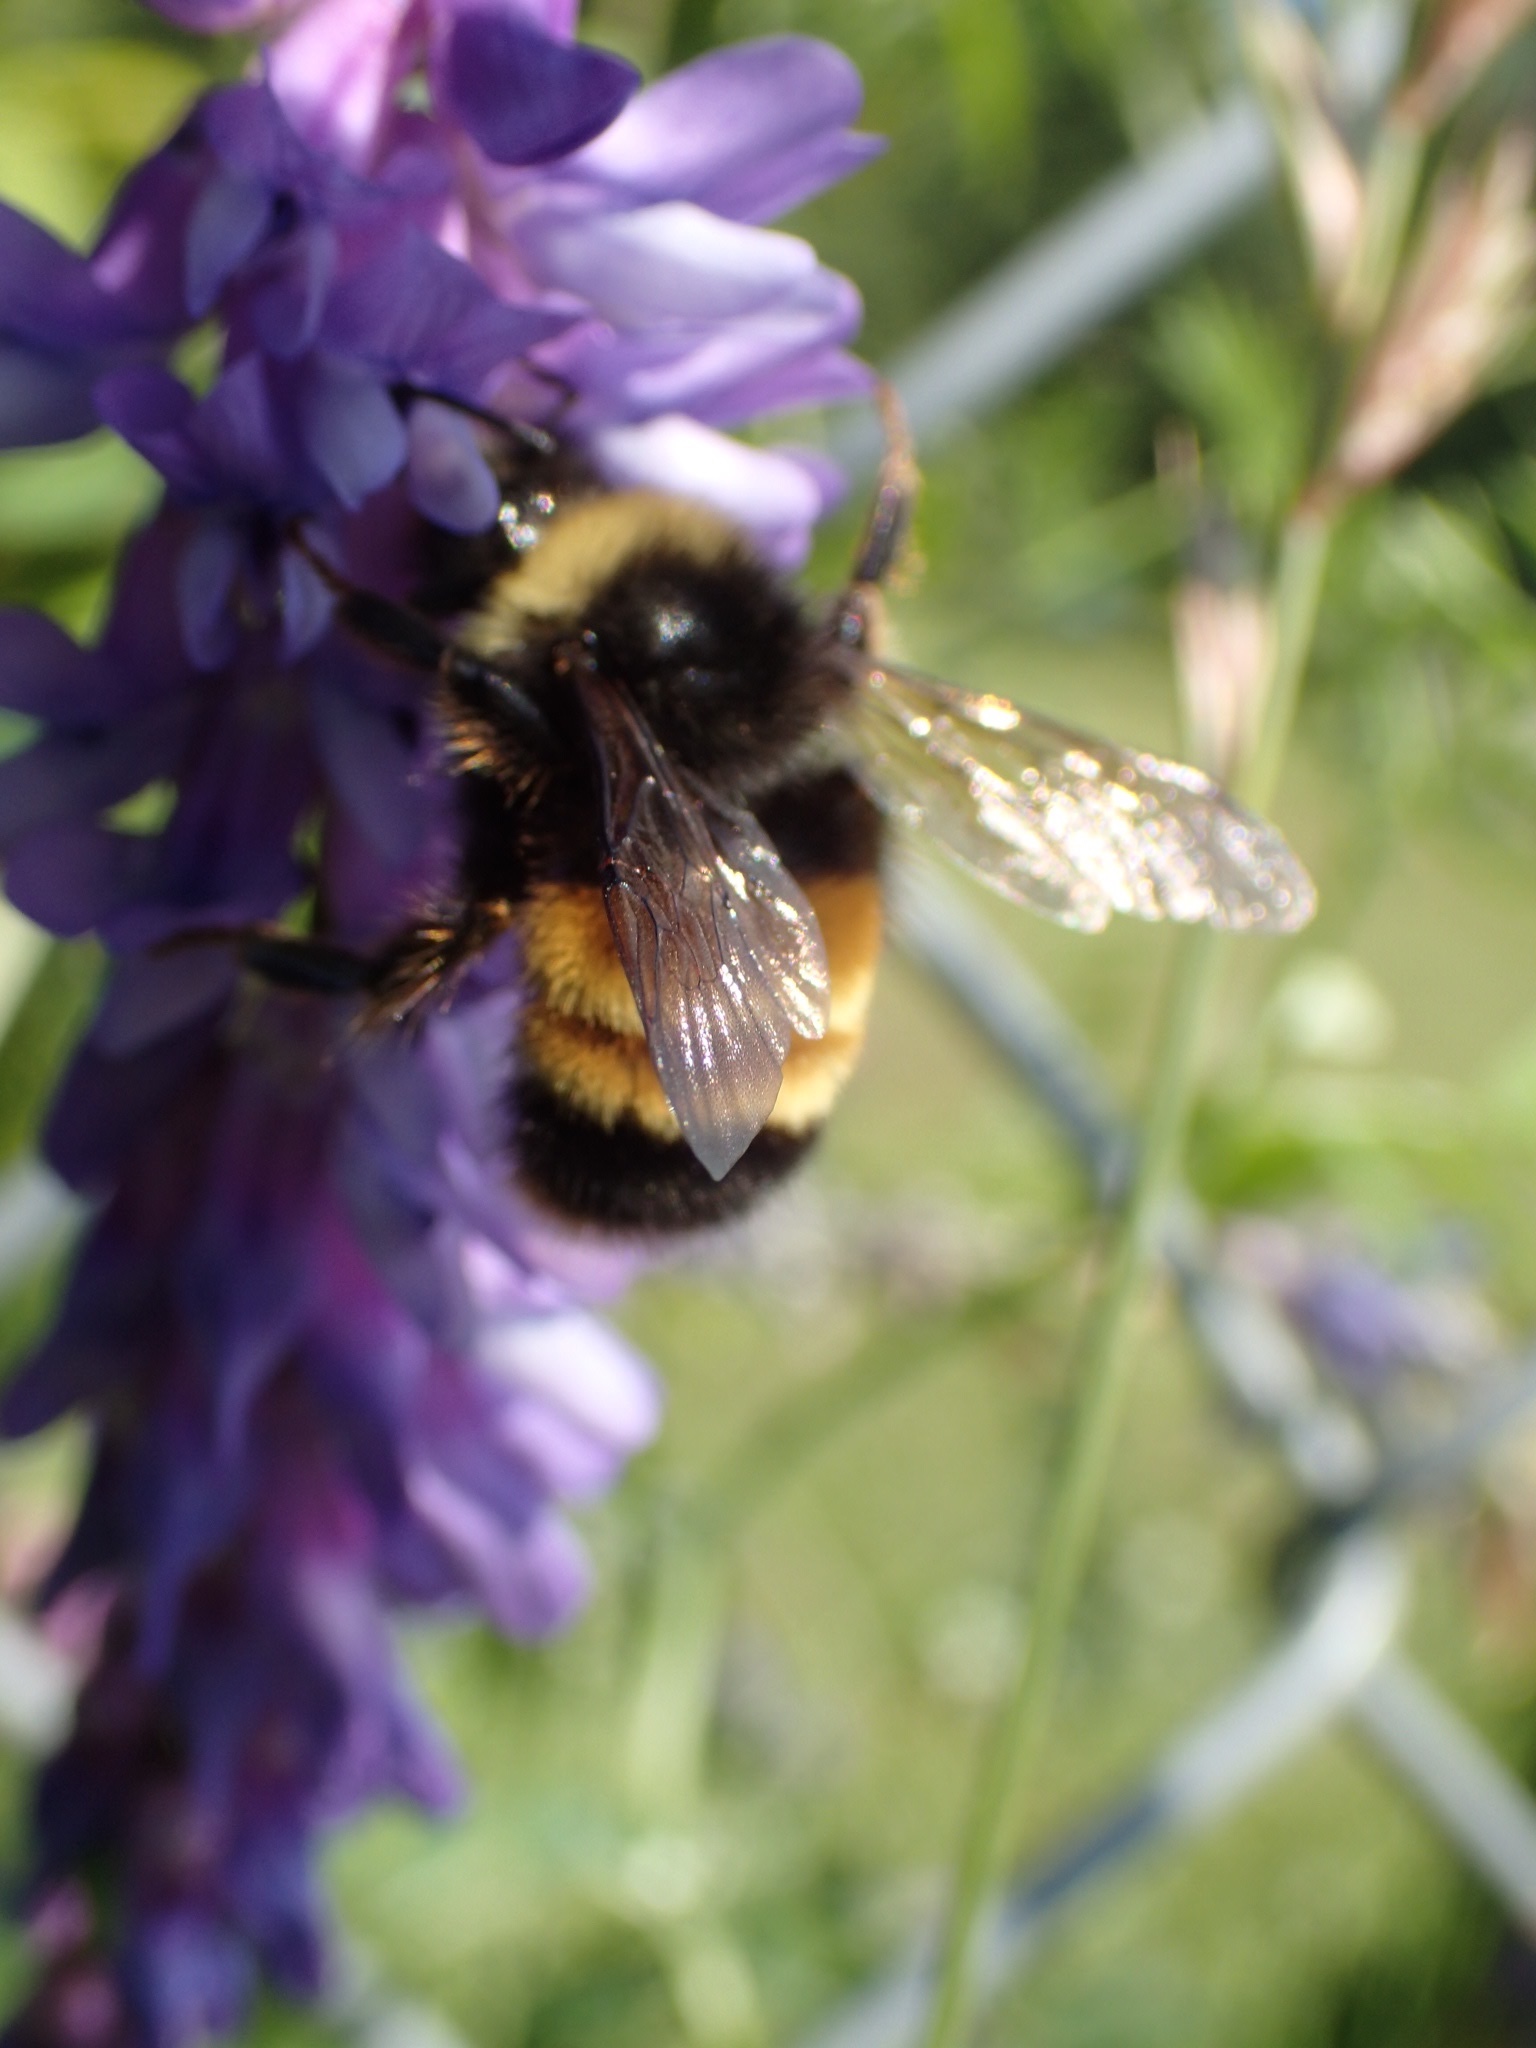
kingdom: Animalia
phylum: Arthropoda
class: Insecta
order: Hymenoptera
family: Apidae
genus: Bombus
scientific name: Bombus terricola
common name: Yellow-banded bumble bee
